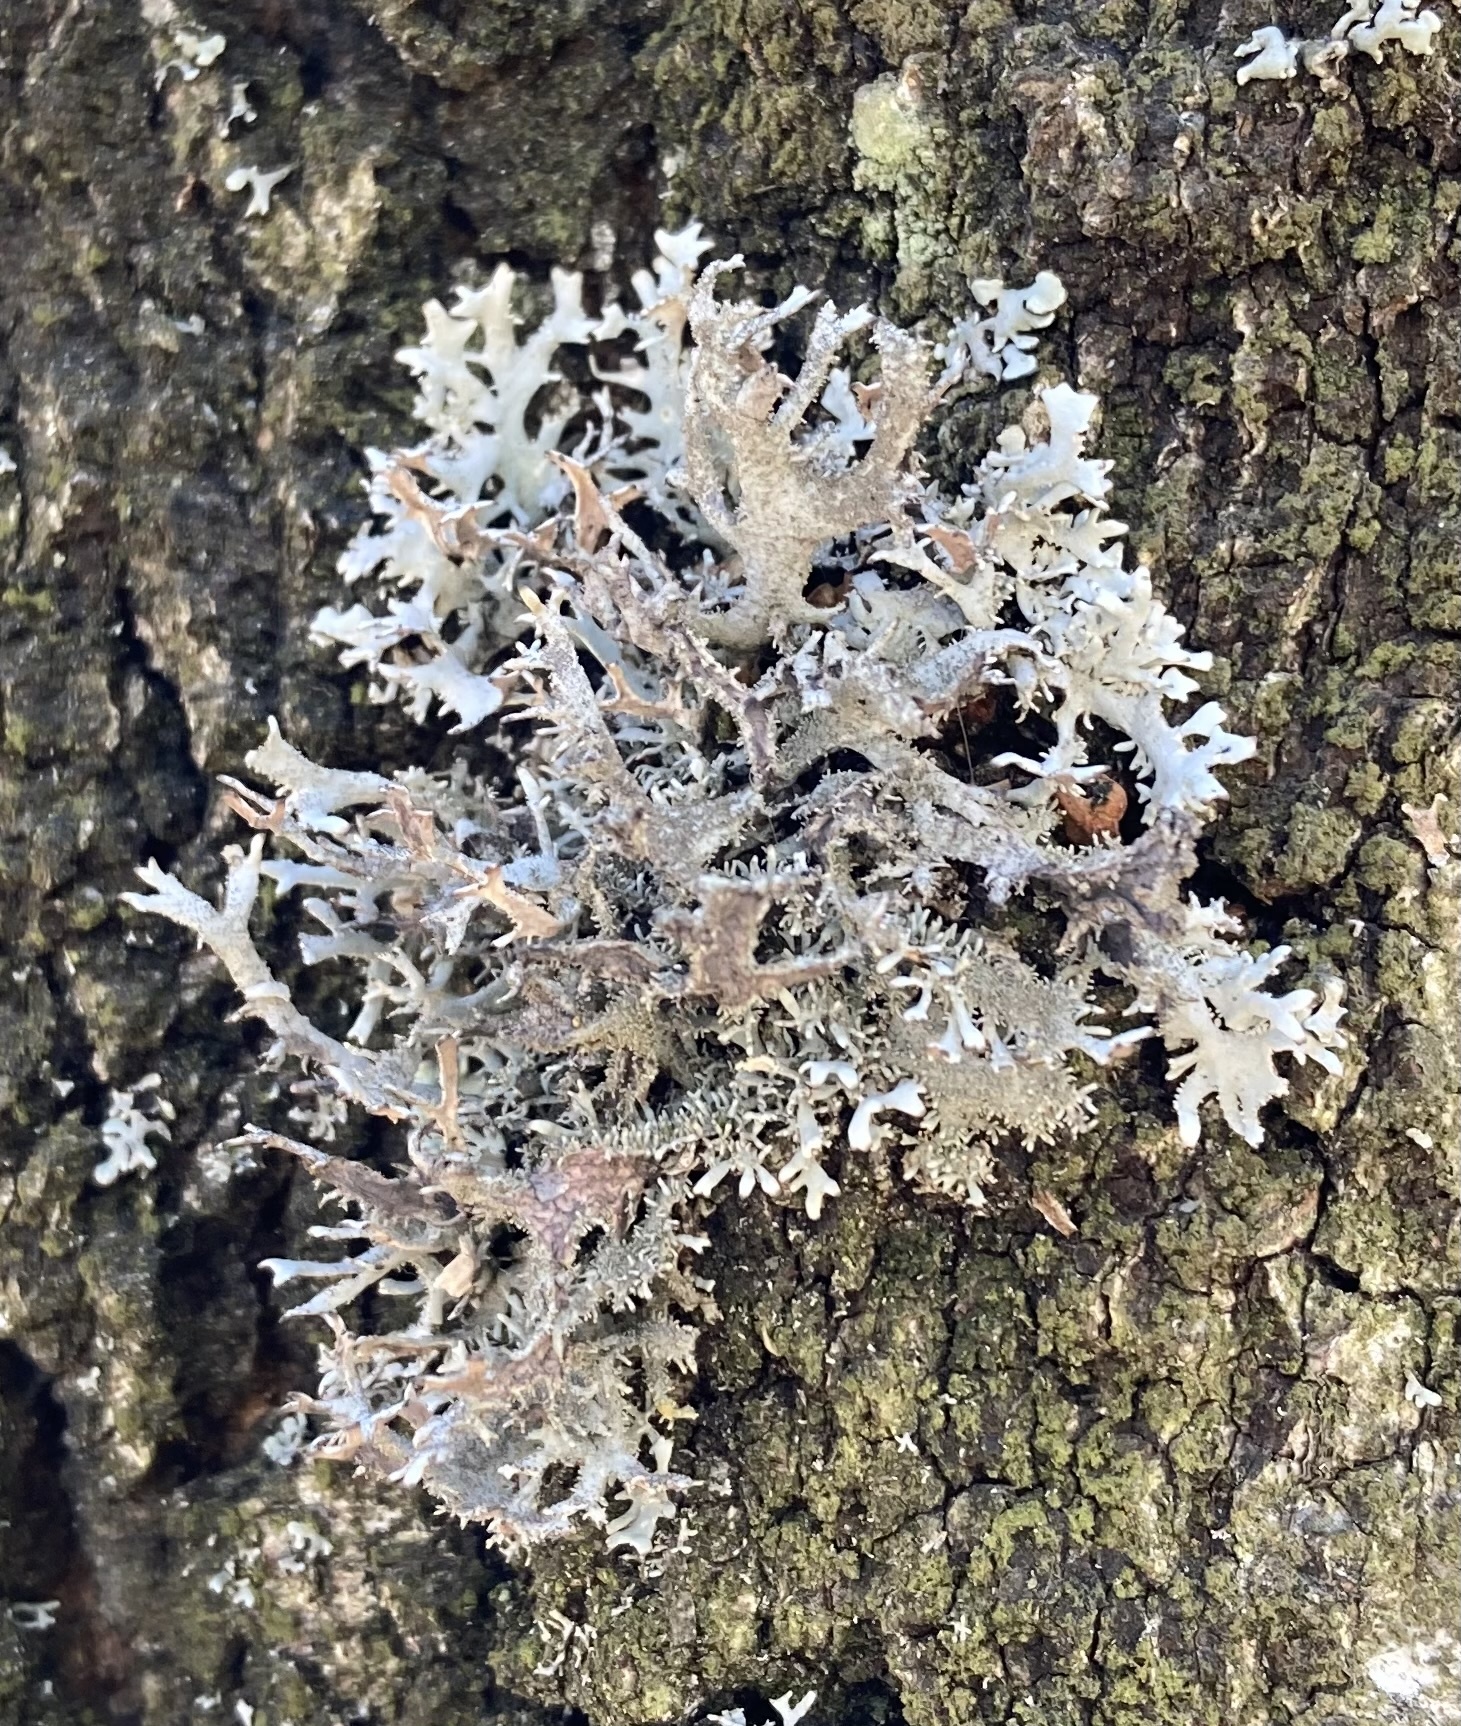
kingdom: Fungi
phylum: Ascomycota
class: Lecanoromycetes
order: Lecanorales
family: Parmeliaceae
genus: Pseudevernia
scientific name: Pseudevernia furfuracea
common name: Tree moss
